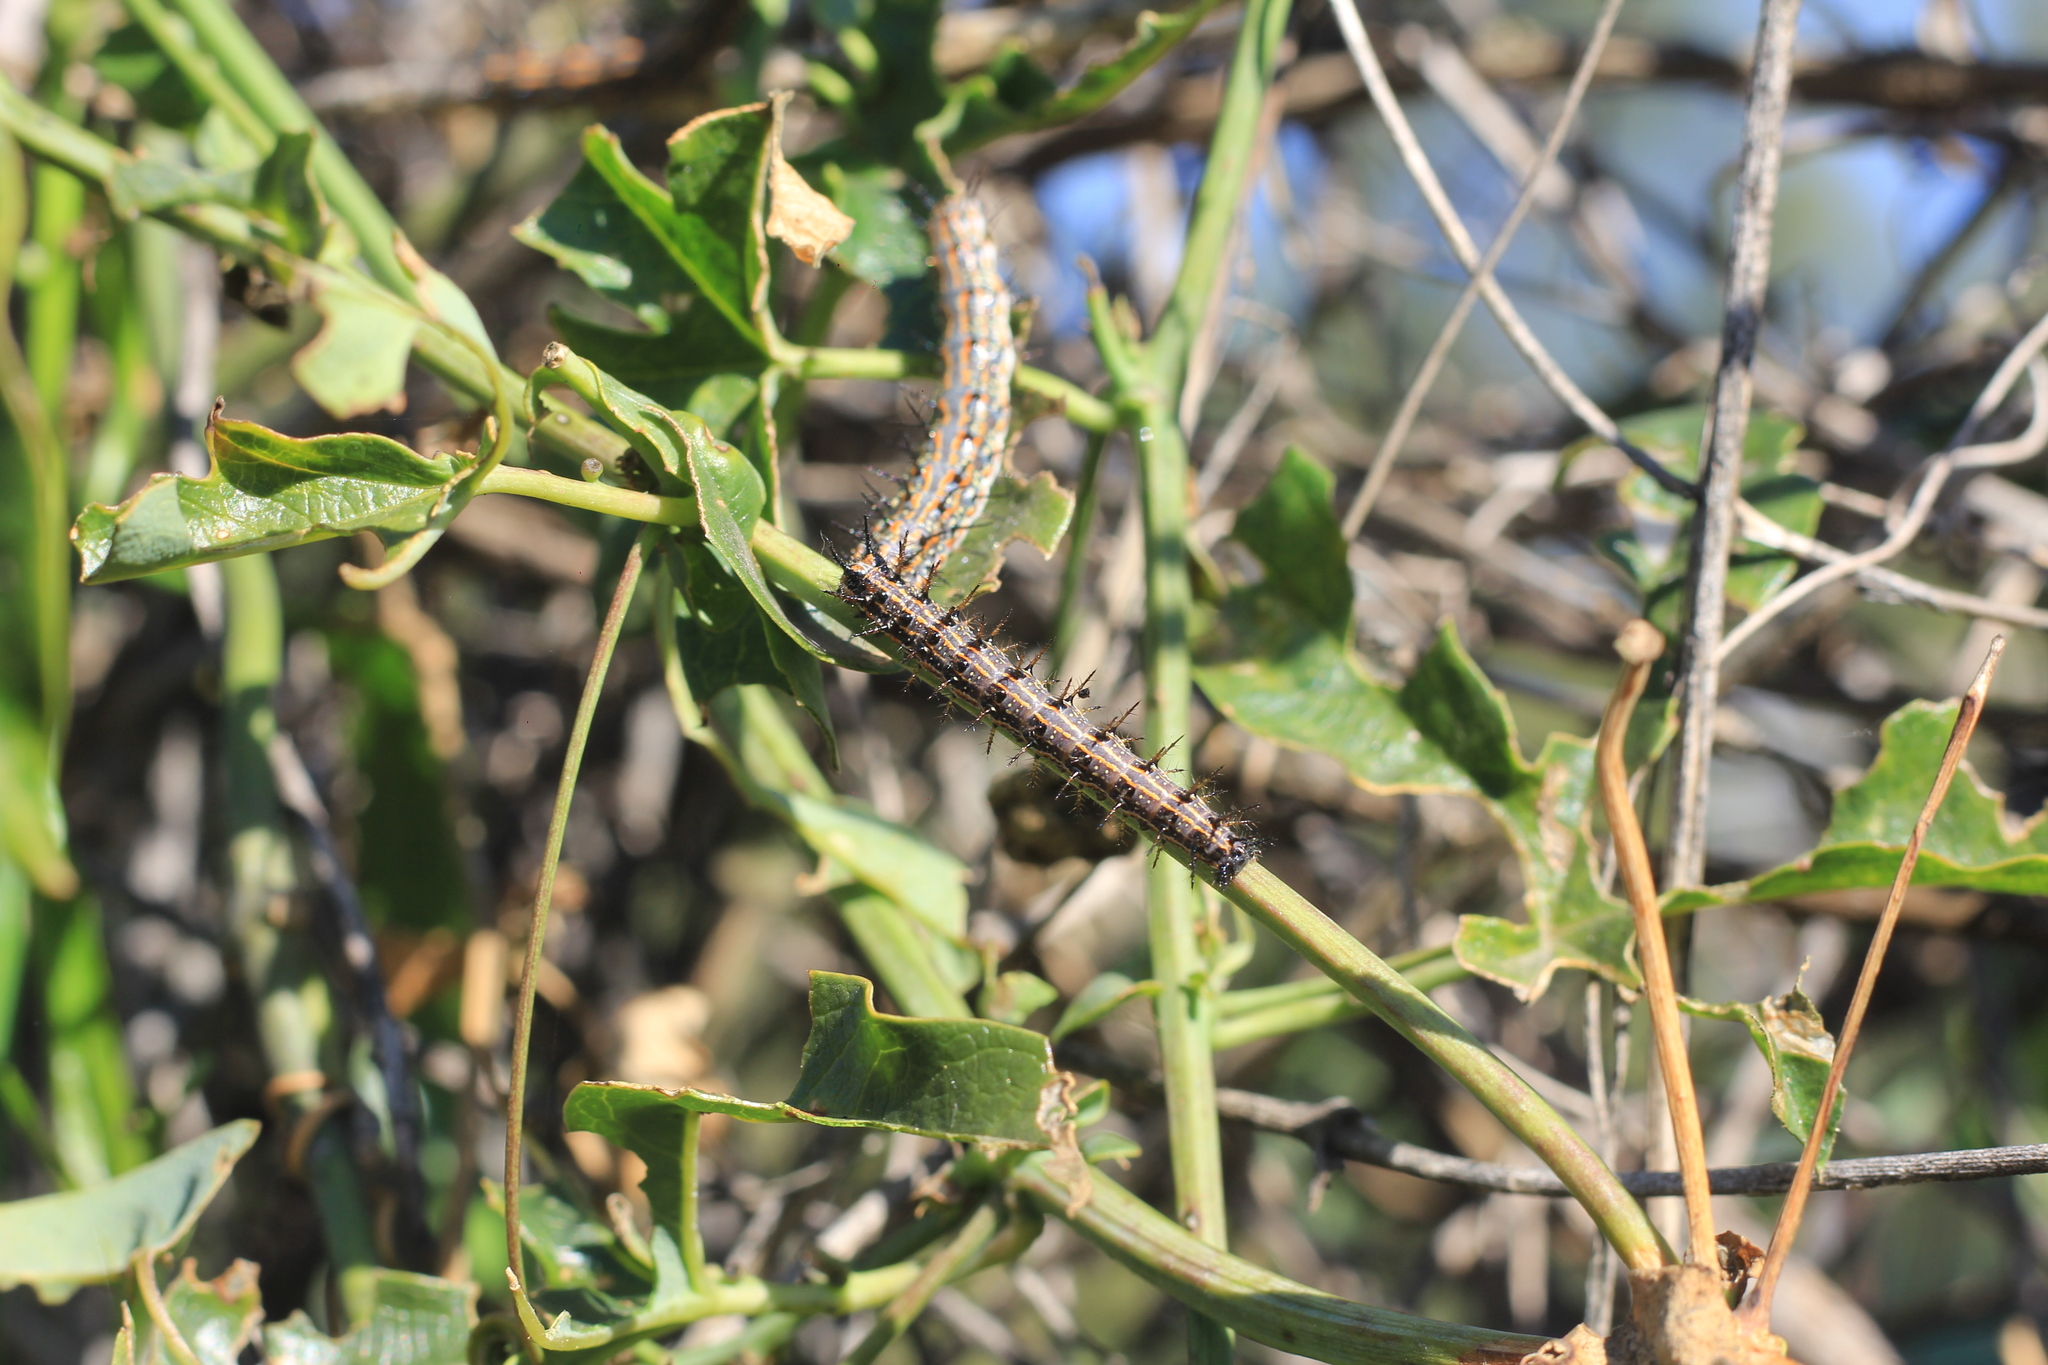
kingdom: Animalia
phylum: Arthropoda
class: Insecta
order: Lepidoptera
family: Nymphalidae
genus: Dione
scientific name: Dione vanillae
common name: Gulf fritillary
